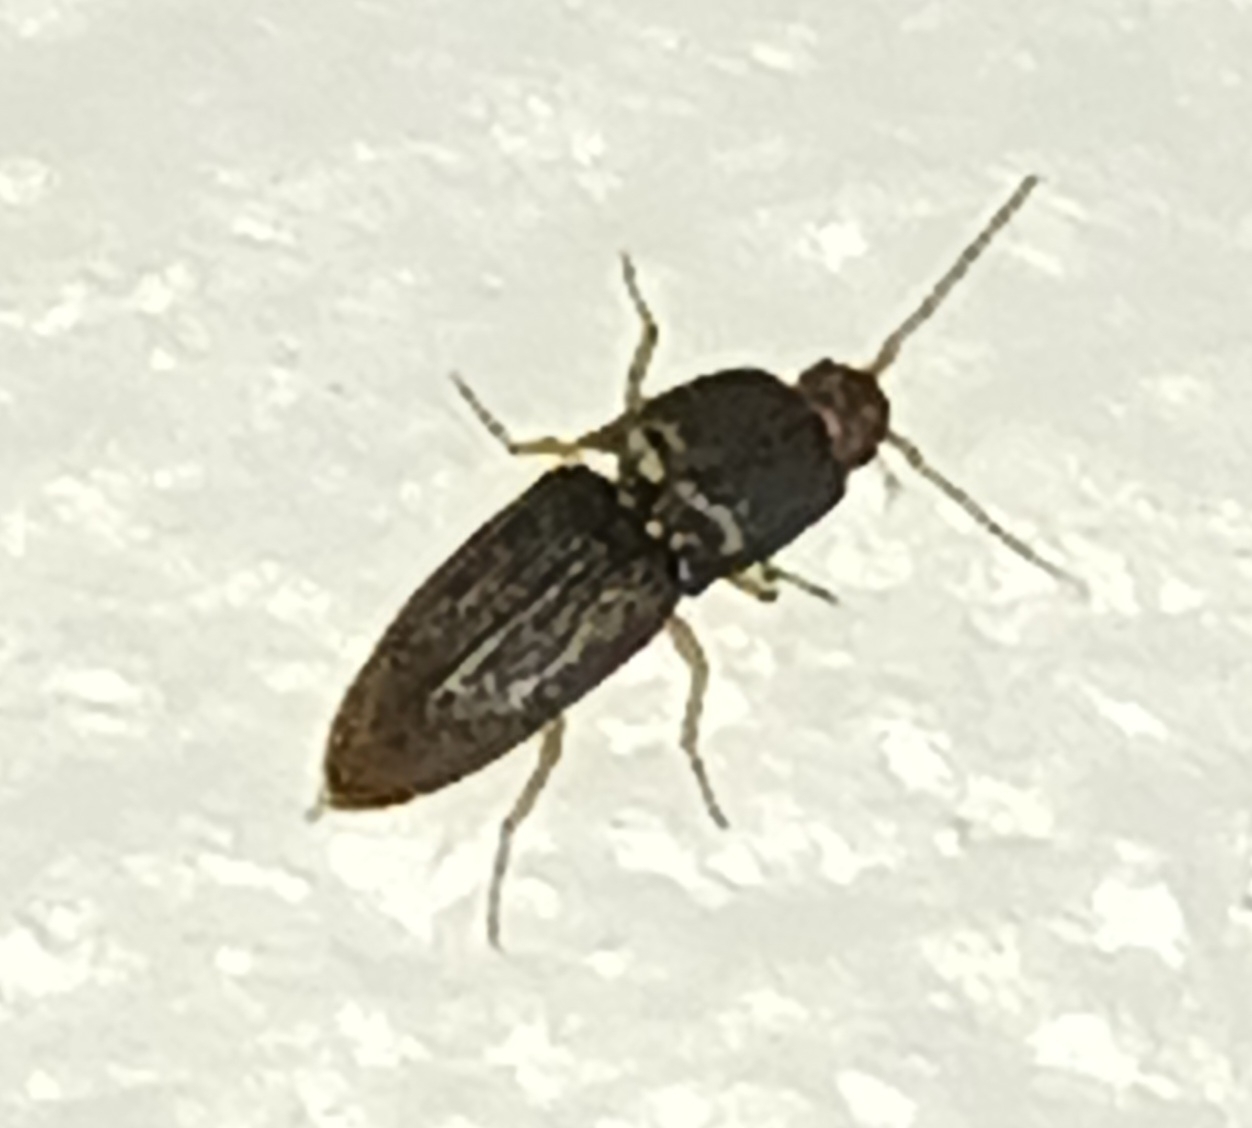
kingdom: Animalia
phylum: Arthropoda
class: Insecta
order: Coleoptera
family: Elateridae
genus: Heteroderes
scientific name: Heteroderes amplicollis
